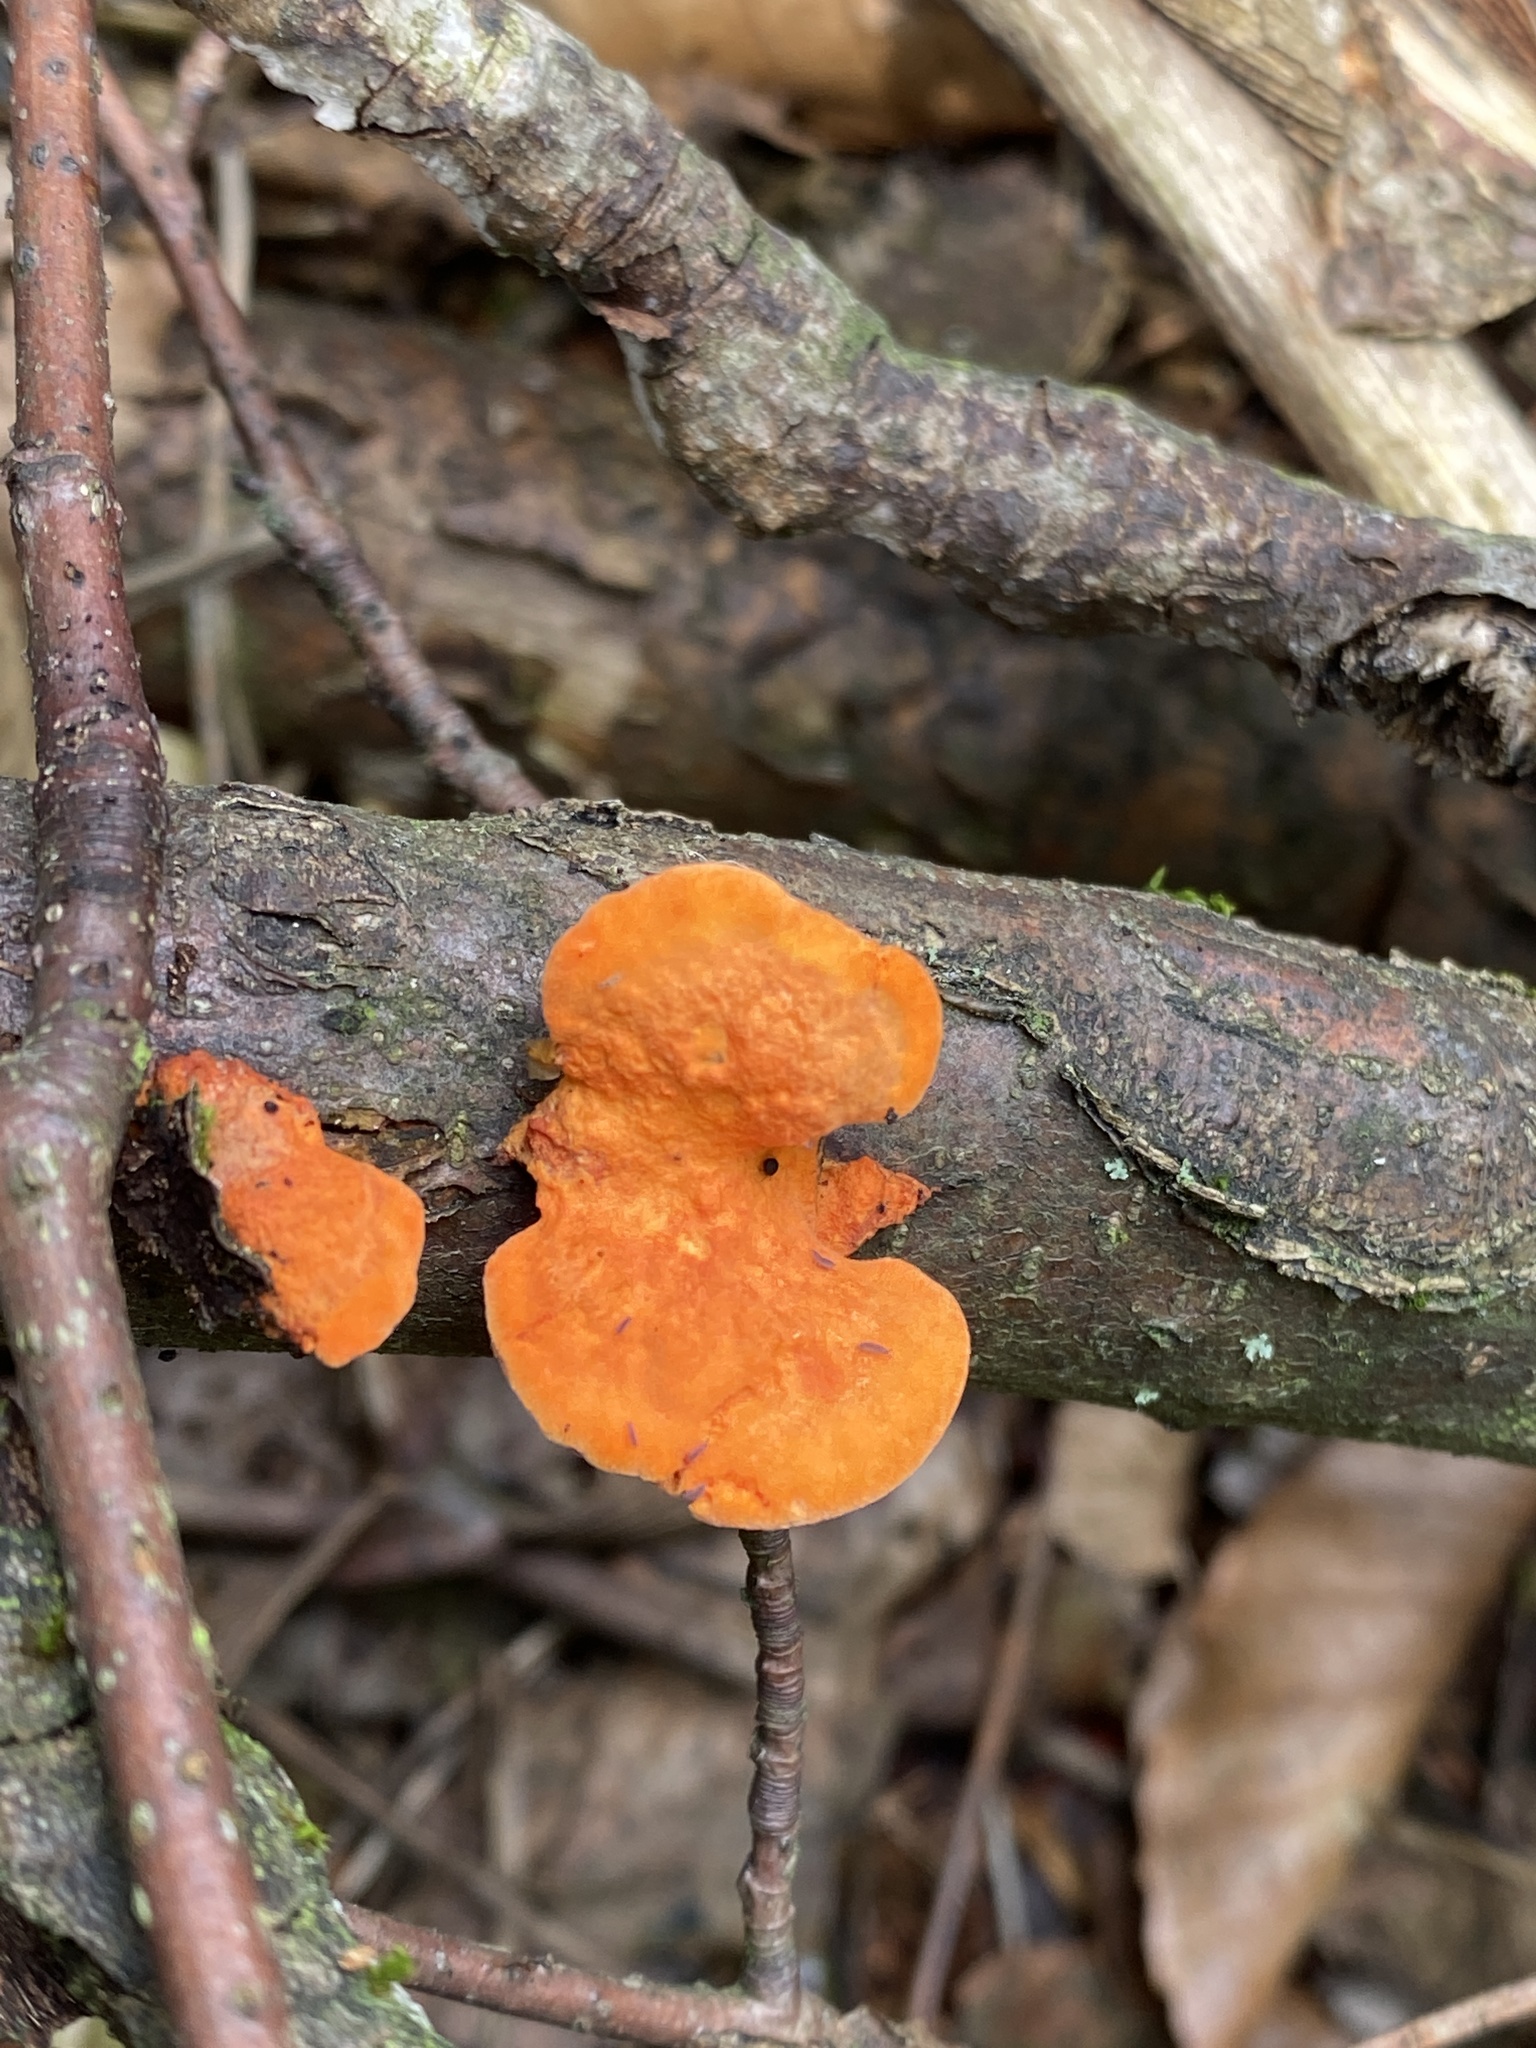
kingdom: Fungi
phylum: Basidiomycota
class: Agaricomycetes
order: Polyporales
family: Polyporaceae
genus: Trametes
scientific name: Trametes cinnabarina
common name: Northern cinnabar polypore
